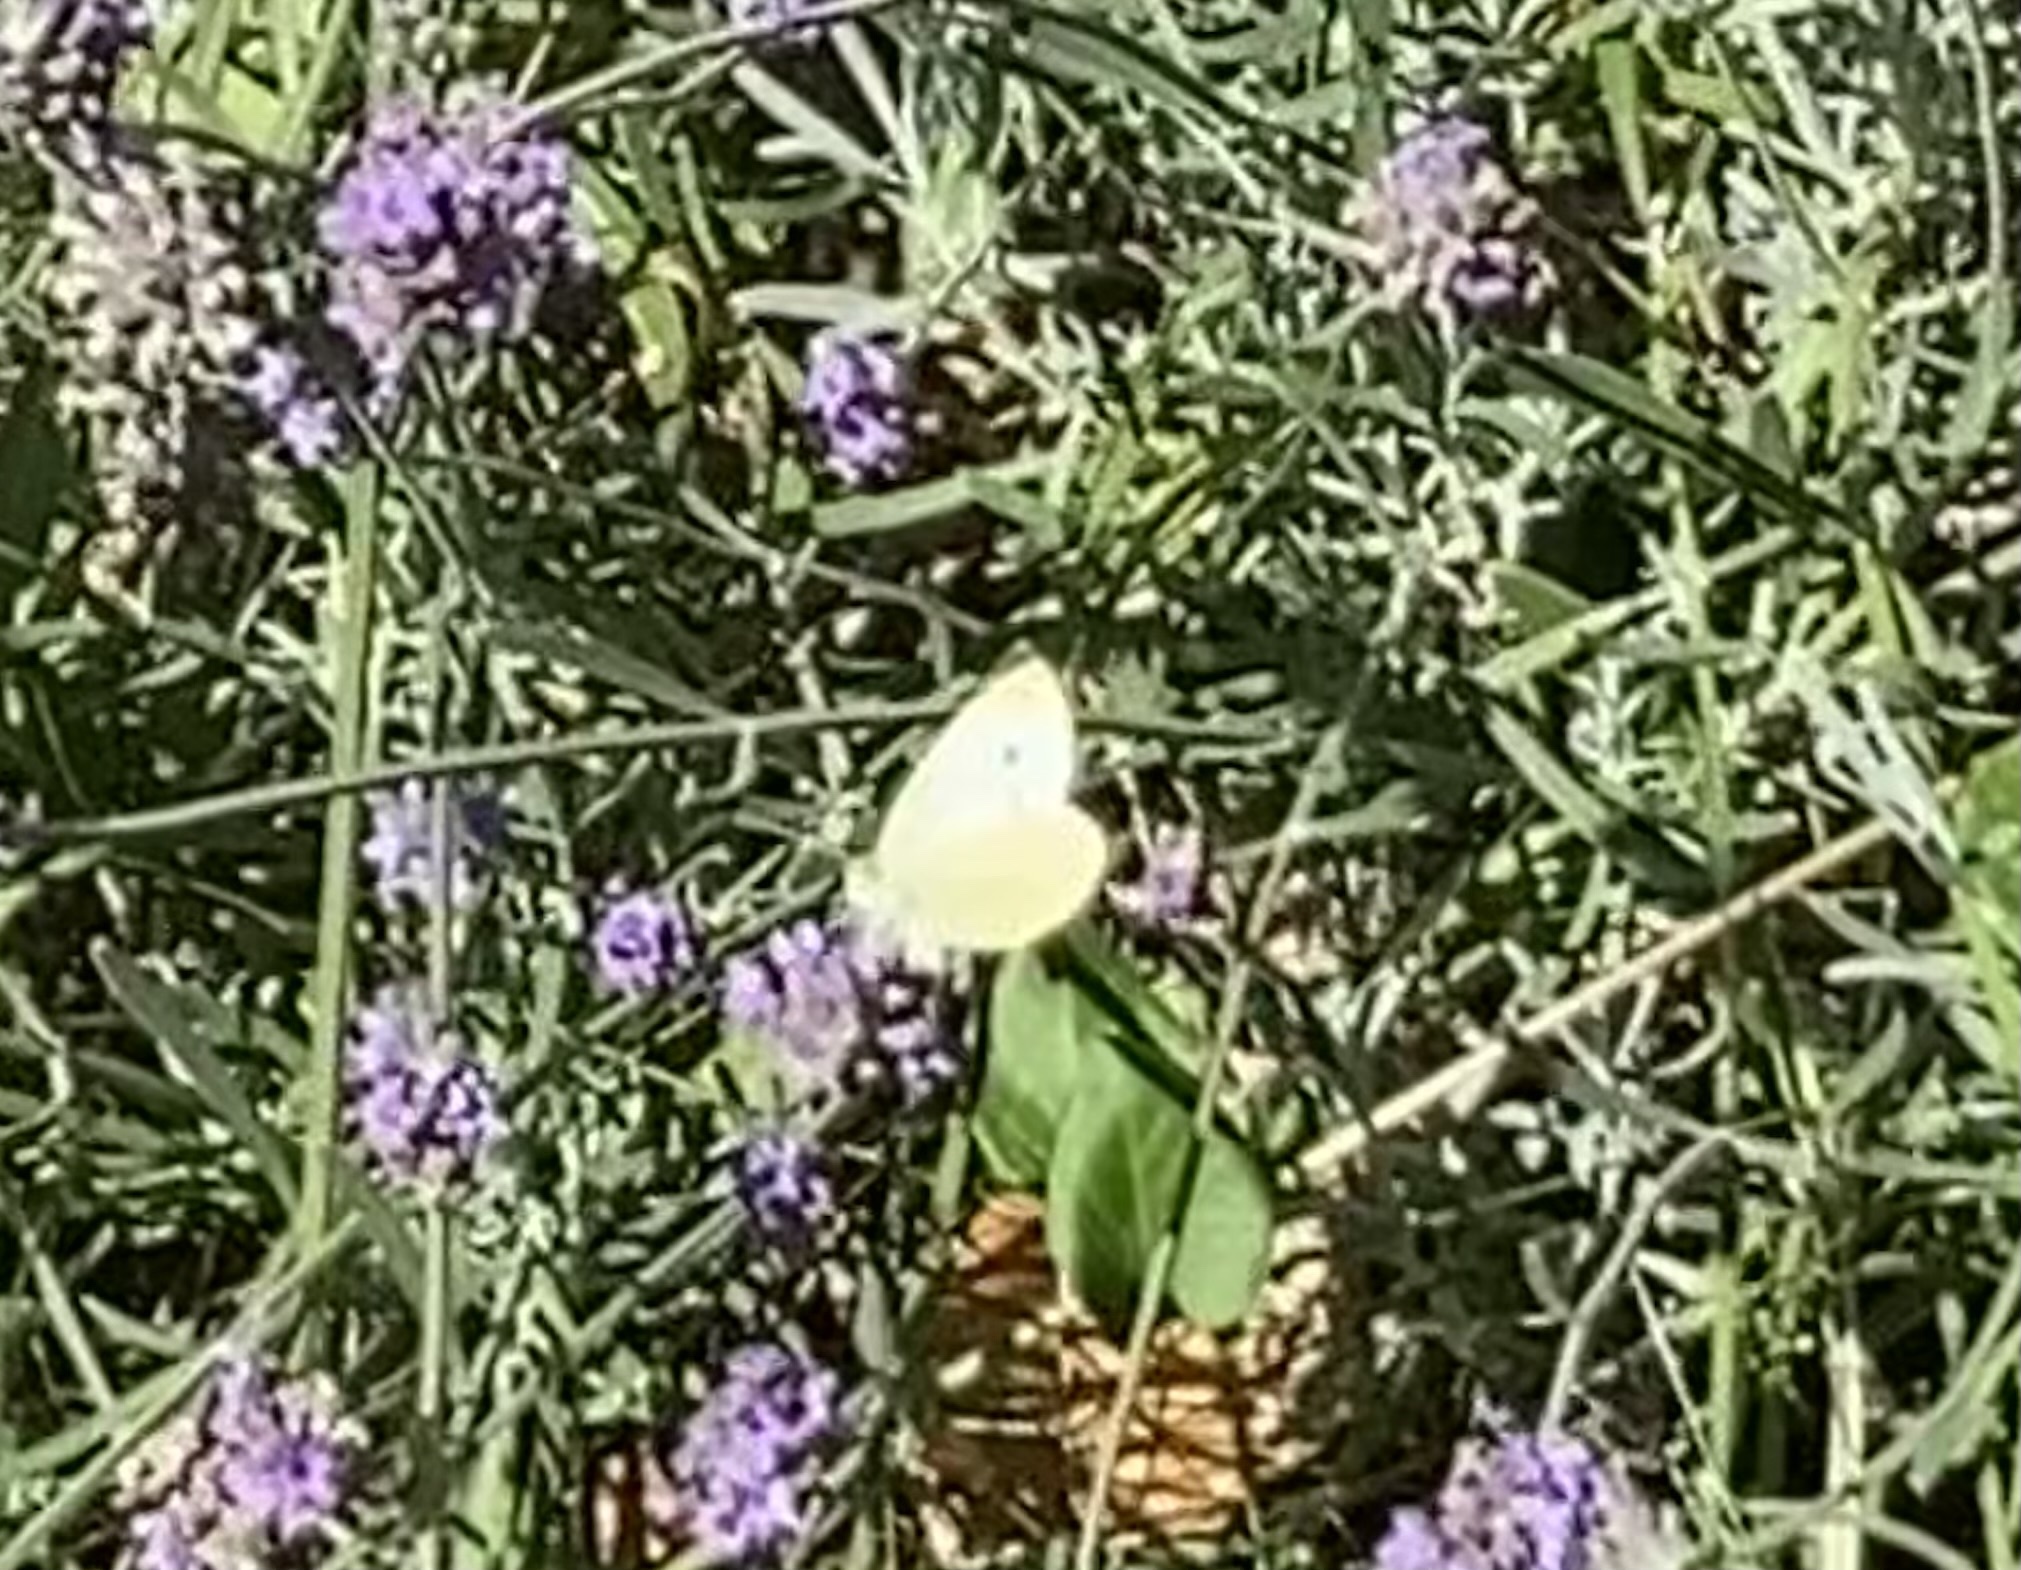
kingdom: Animalia
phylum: Arthropoda
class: Insecta
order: Lepidoptera
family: Pieridae
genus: Pieris
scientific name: Pieris rapae
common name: Small white
